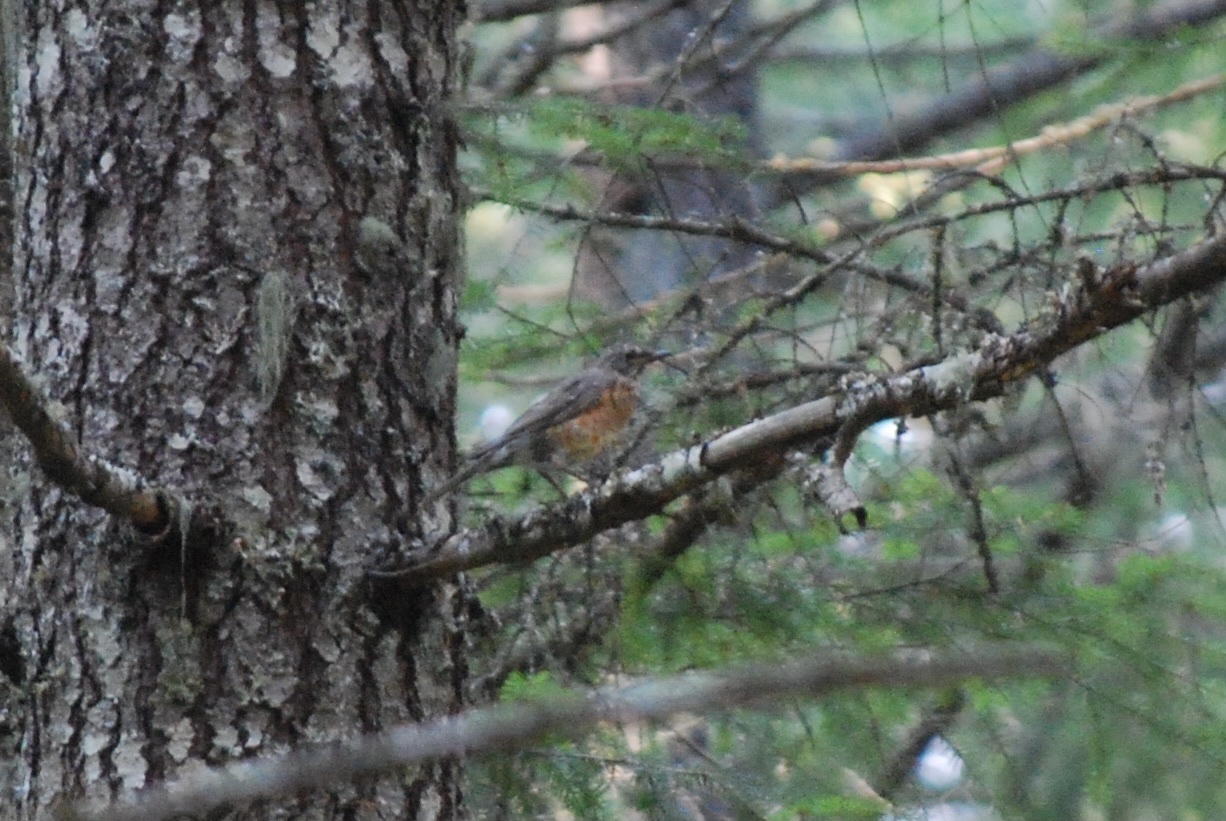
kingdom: Animalia
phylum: Chordata
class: Aves
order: Passeriformes
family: Turdidae
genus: Turdus
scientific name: Turdus migratorius
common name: American robin
